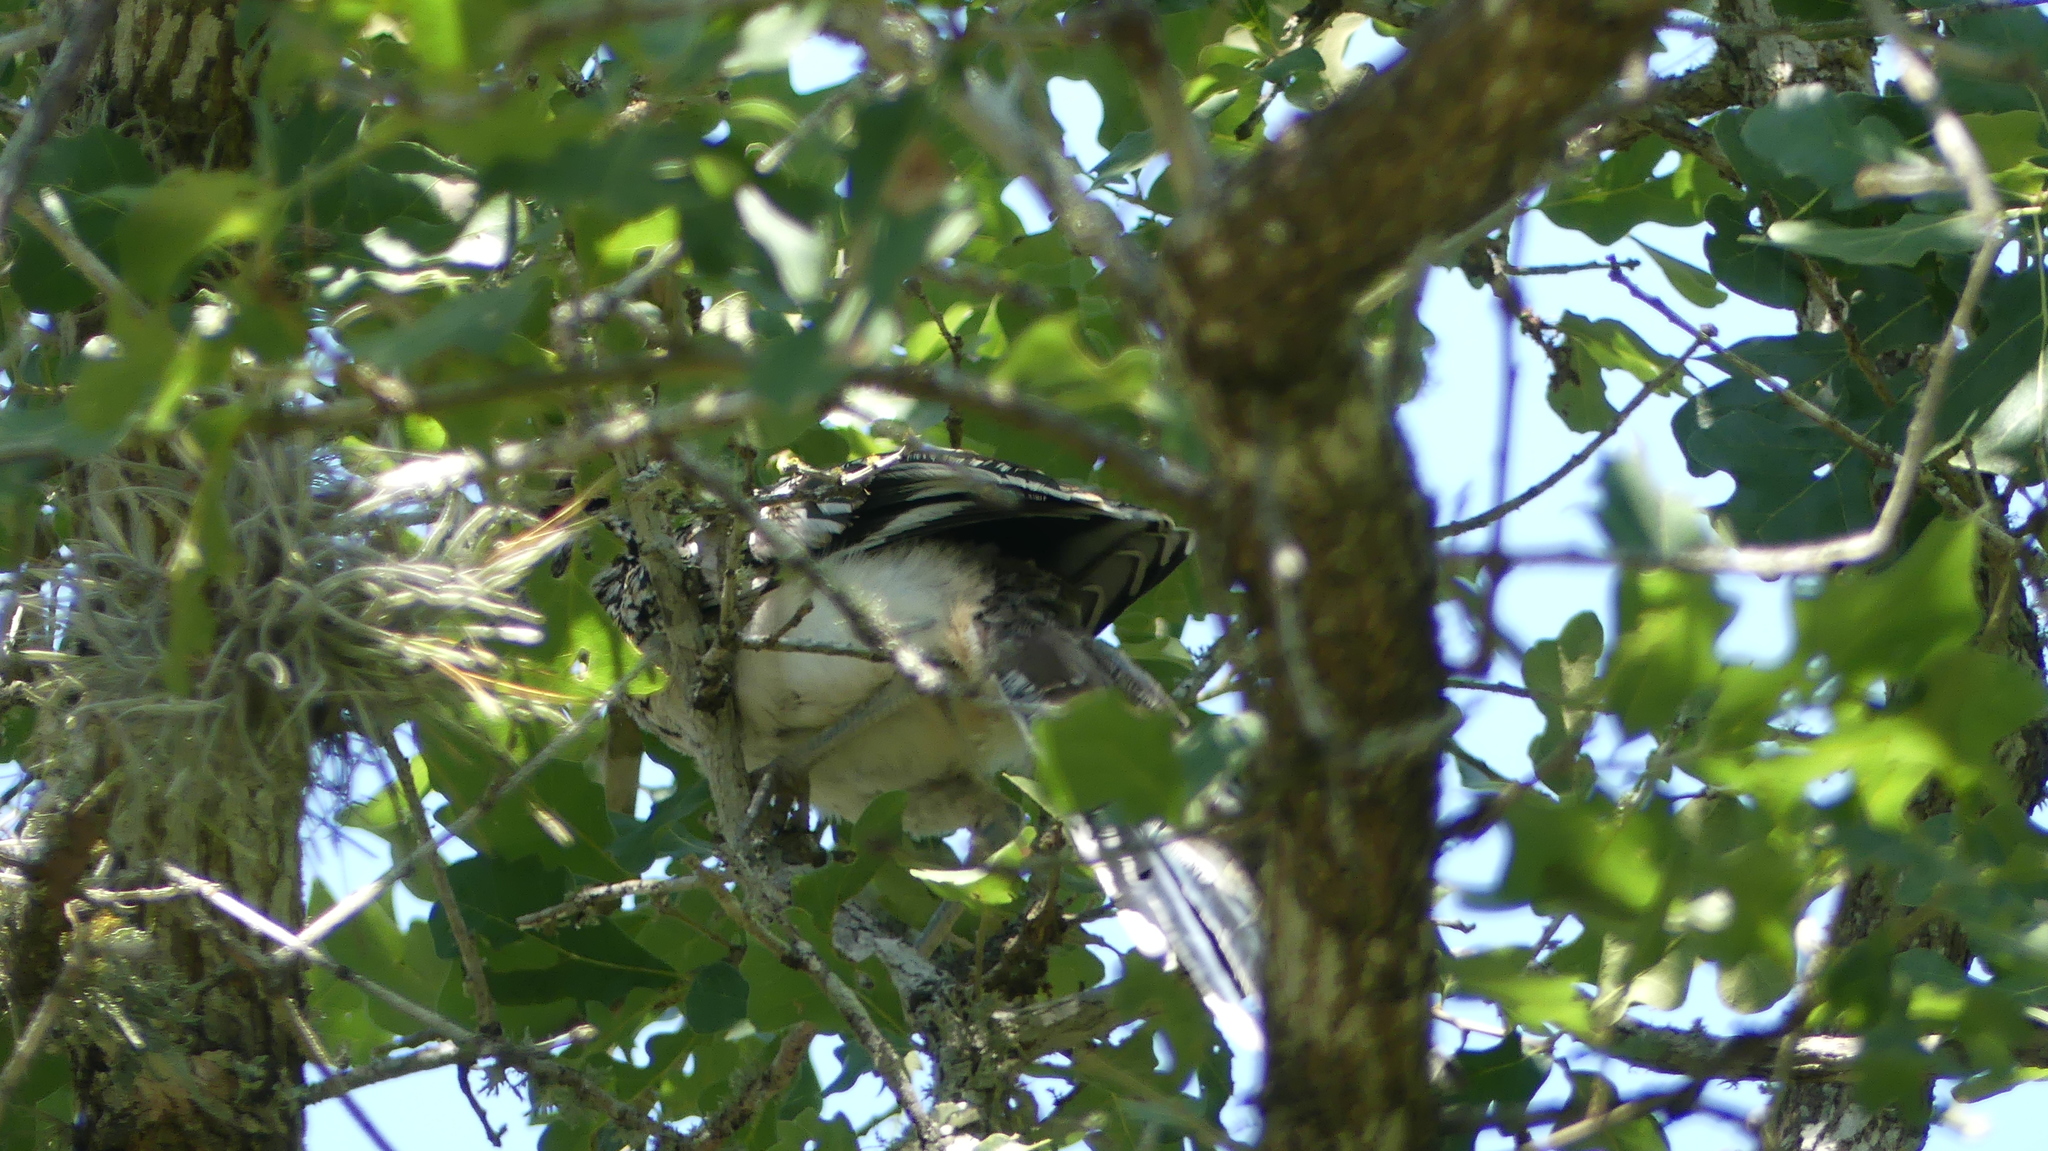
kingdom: Animalia
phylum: Chordata
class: Aves
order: Cuculiformes
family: Cuculidae
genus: Geococcyx
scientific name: Geococcyx californianus
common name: Greater roadrunner
